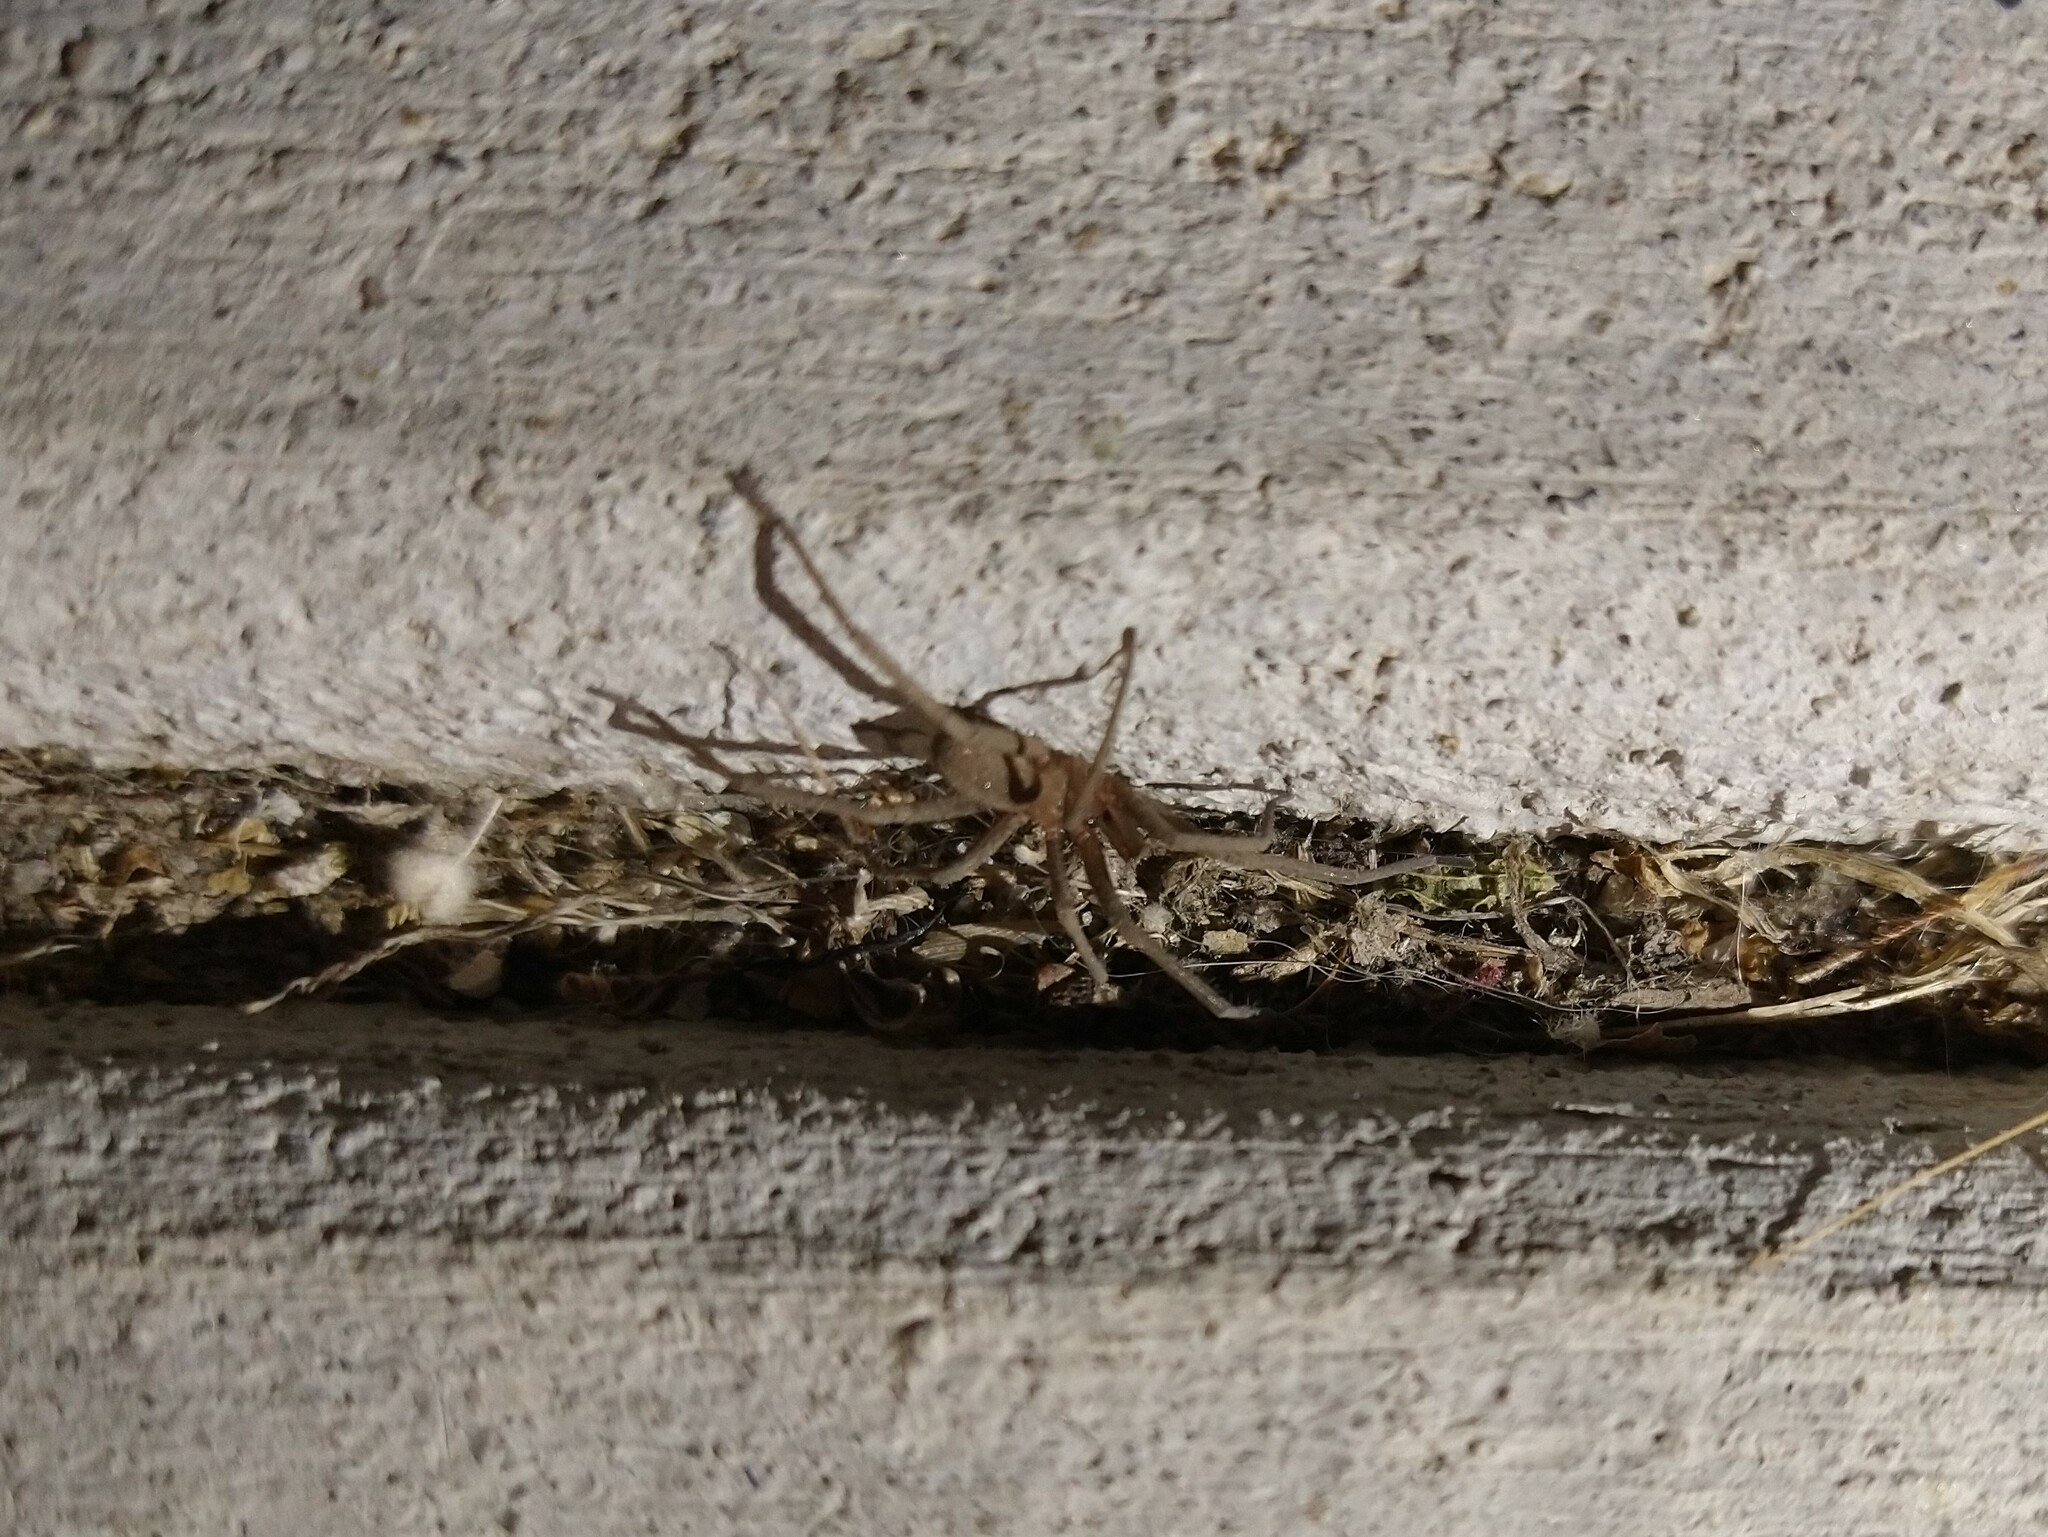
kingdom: Animalia
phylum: Arthropoda
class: Arachnida
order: Araneae
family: Filistatidae
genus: Kukulcania
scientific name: Kukulcania
